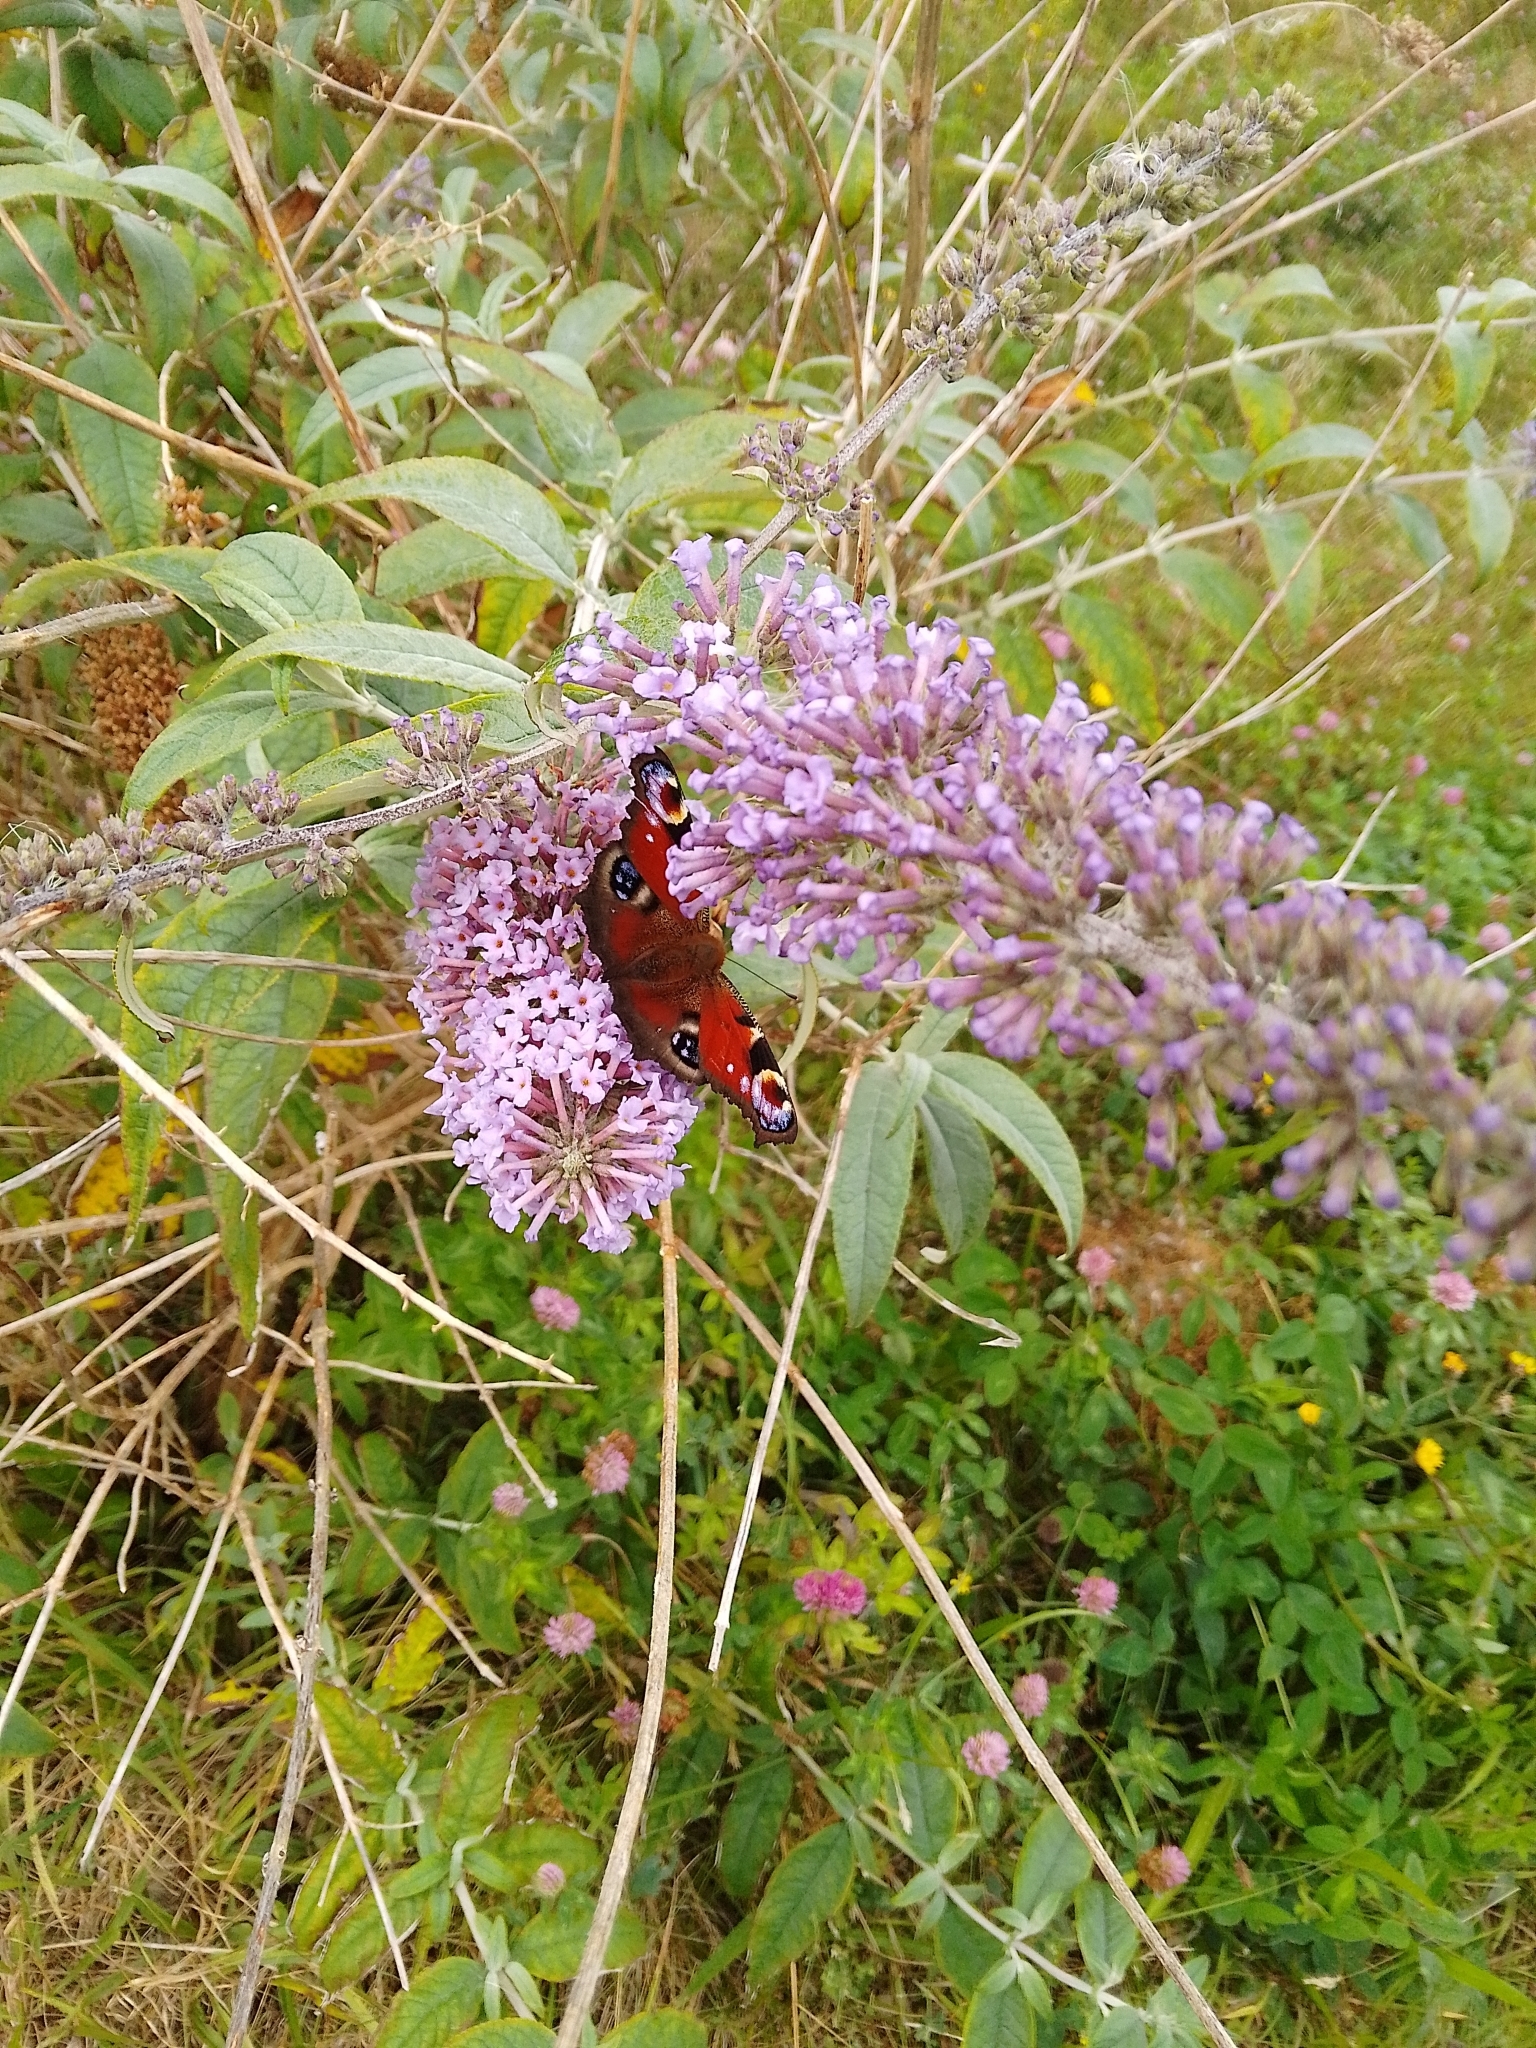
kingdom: Animalia
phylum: Arthropoda
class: Insecta
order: Lepidoptera
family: Nymphalidae
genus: Aglais
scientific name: Aglais io
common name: Peacock
